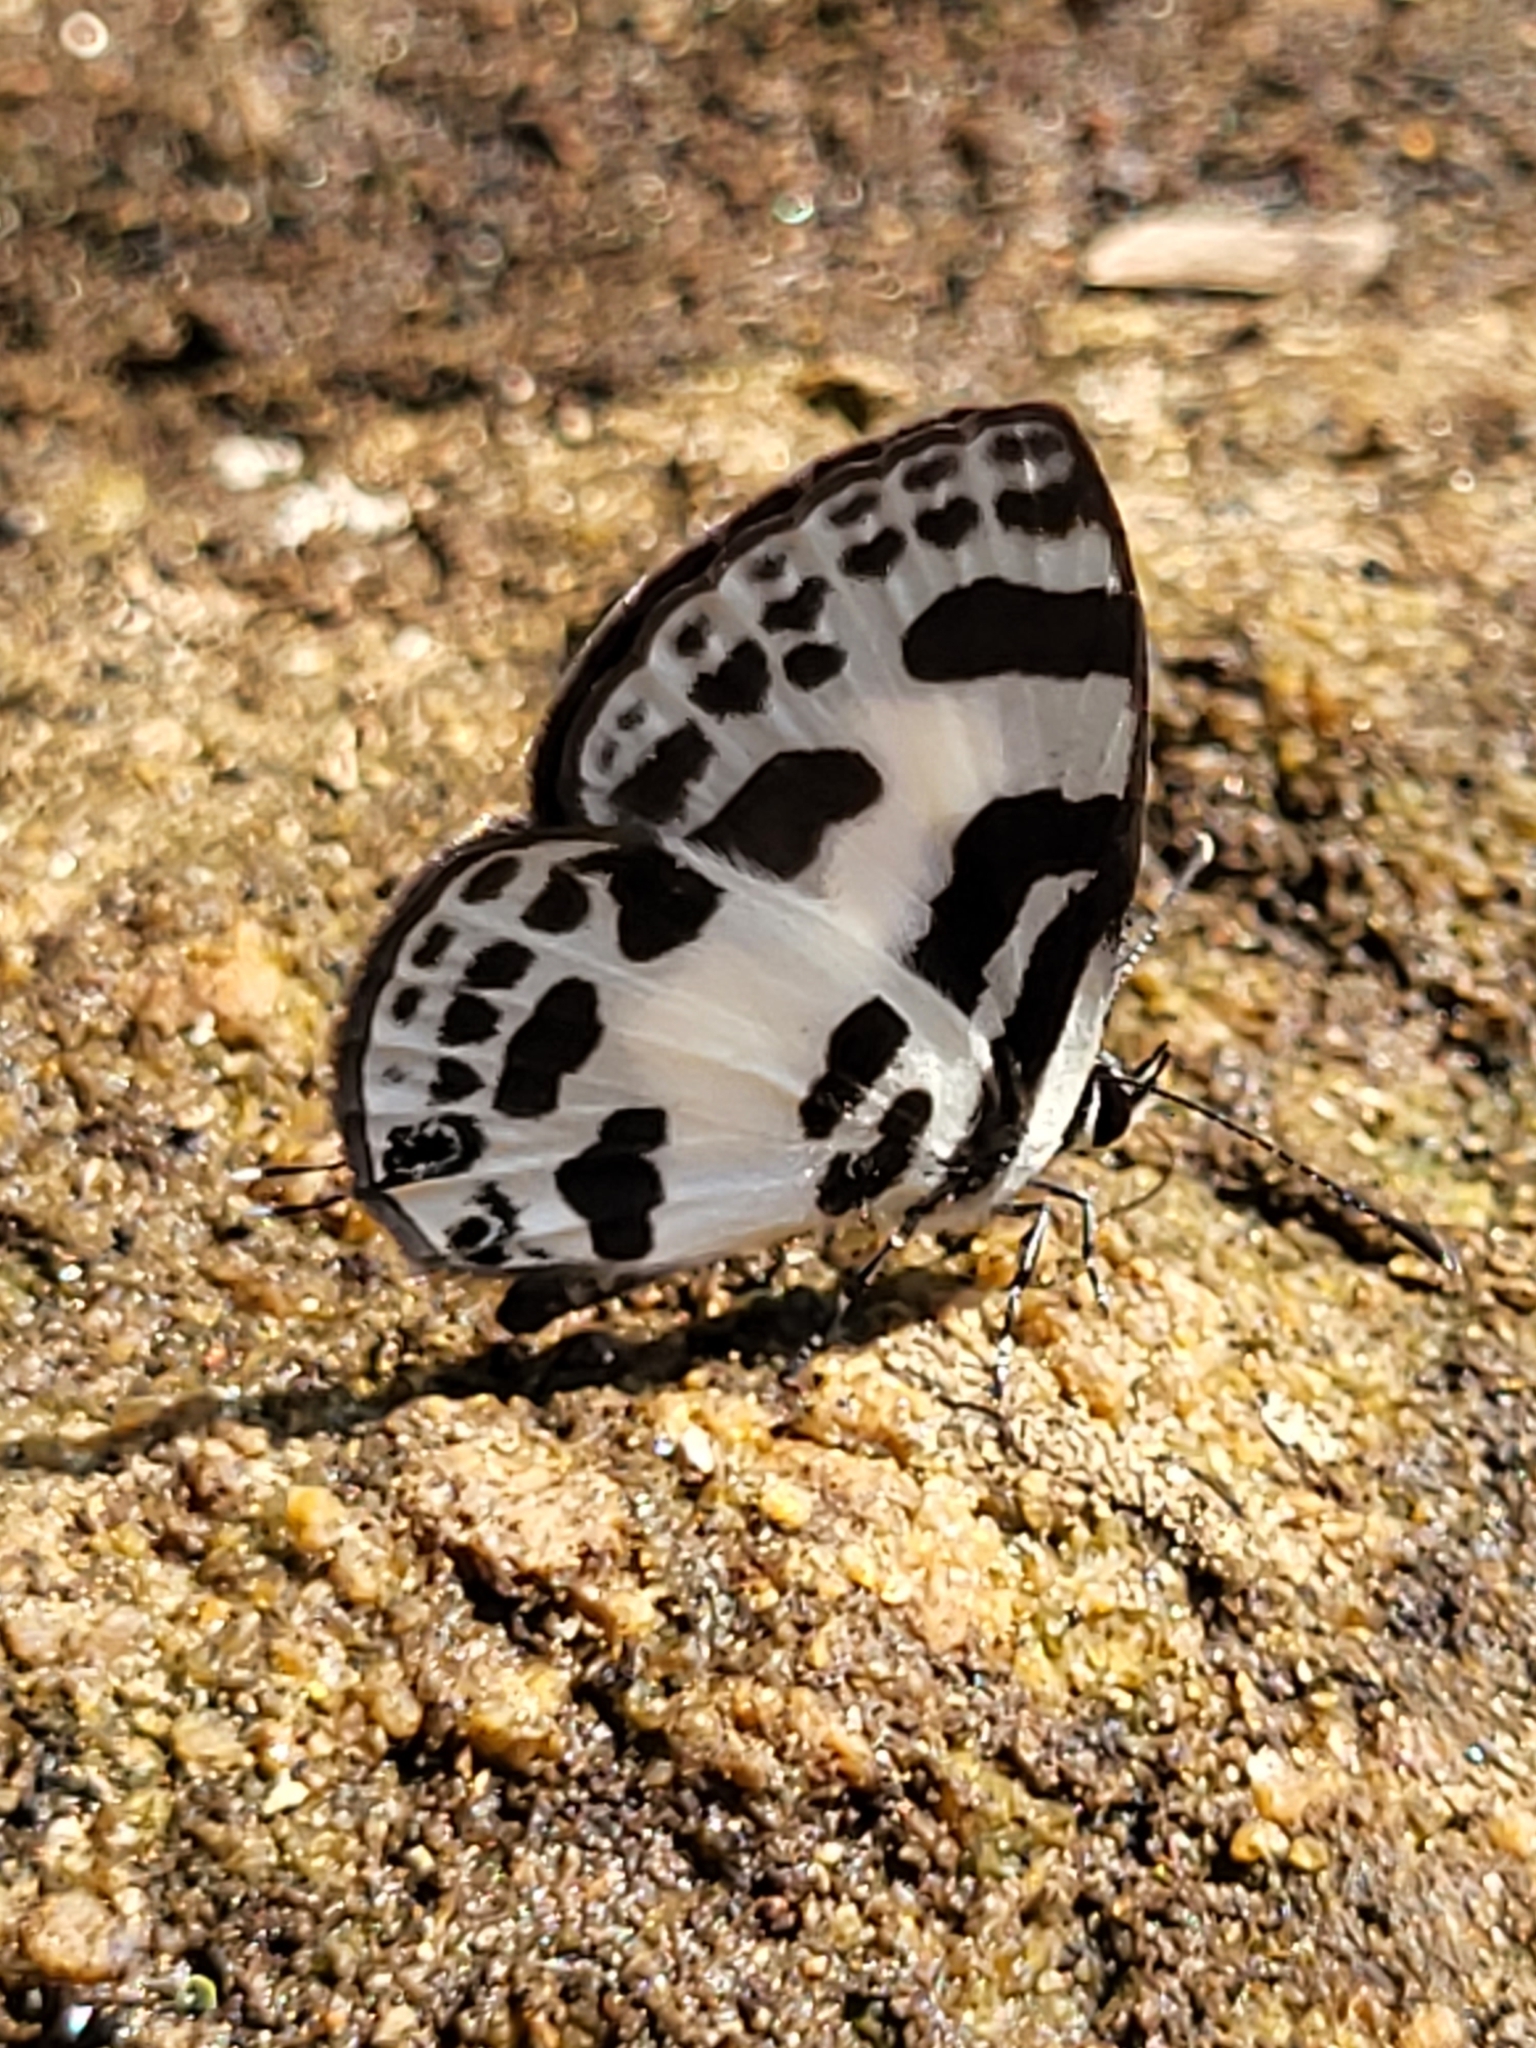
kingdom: Animalia
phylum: Arthropoda
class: Insecta
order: Lepidoptera
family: Lycaenidae
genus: Discolampa
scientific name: Discolampa ethion
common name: Banded blue pierrot
